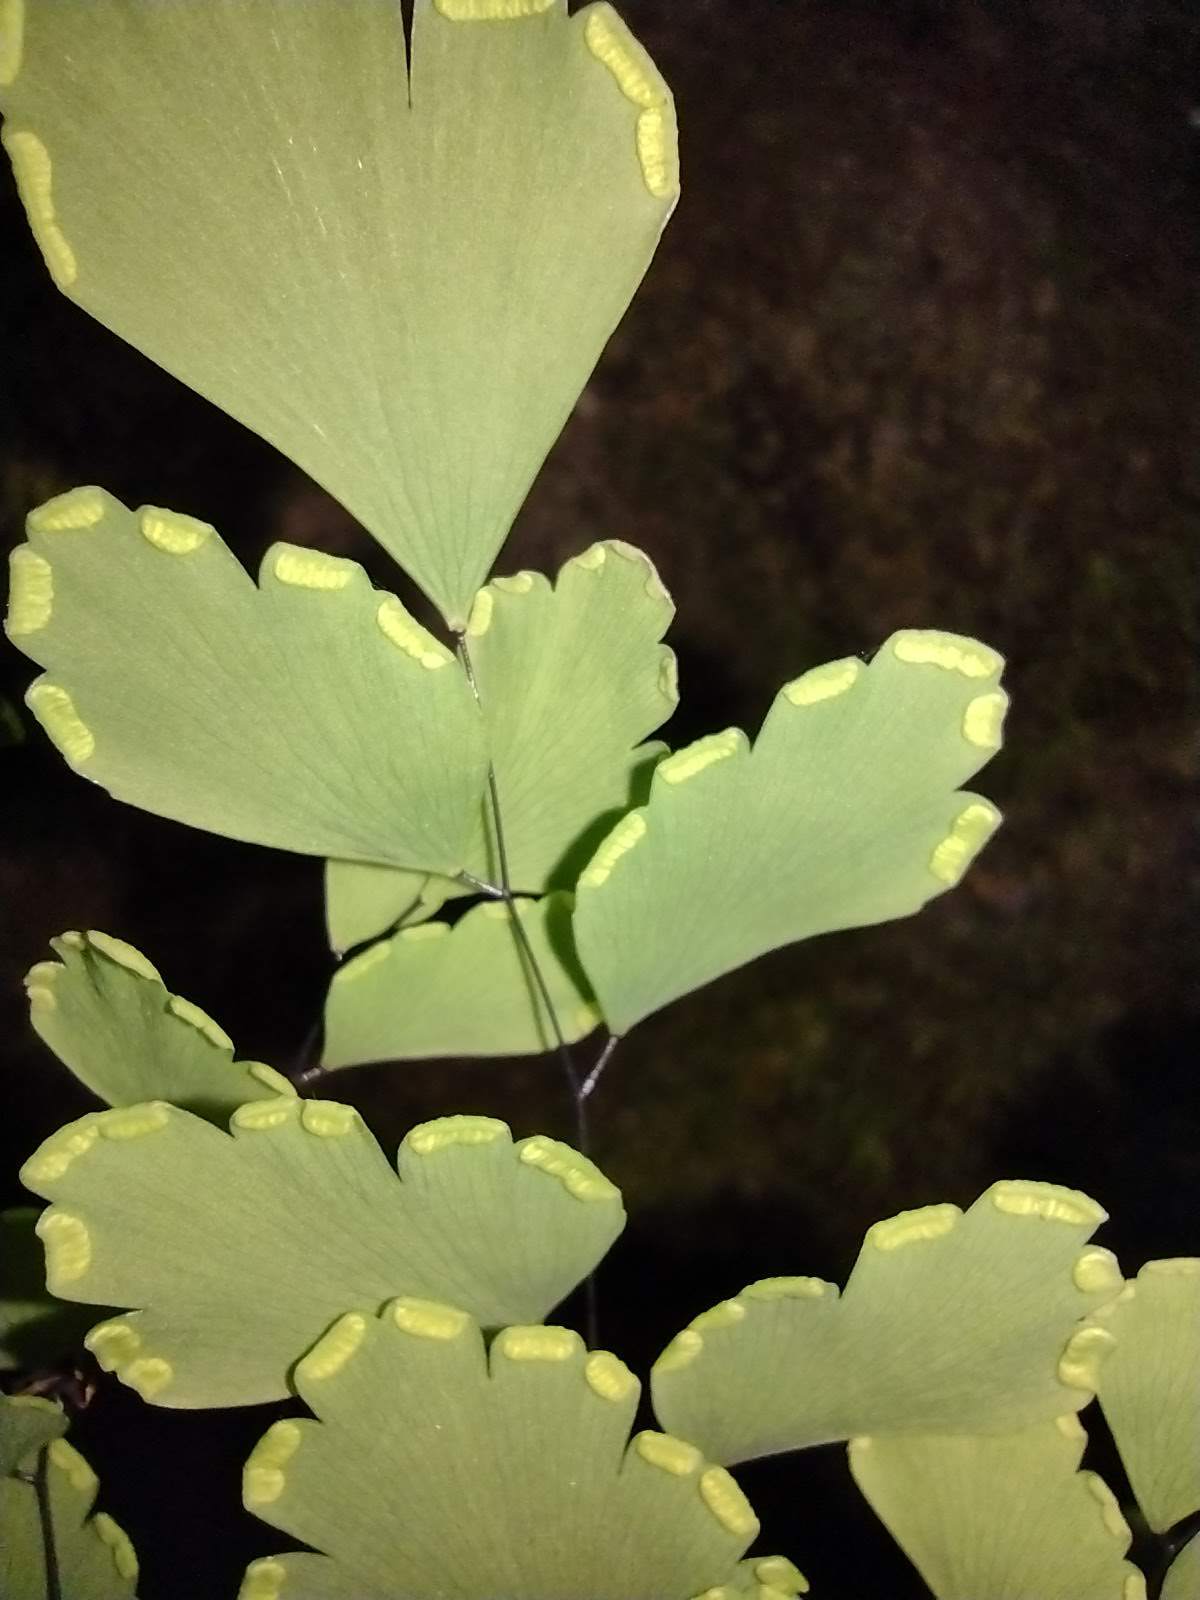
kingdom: Plantae
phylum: Tracheophyta
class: Polypodiopsida
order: Polypodiales
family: Pteridaceae
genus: Adiantum
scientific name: Adiantum tenerum
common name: Fan maidenhair
